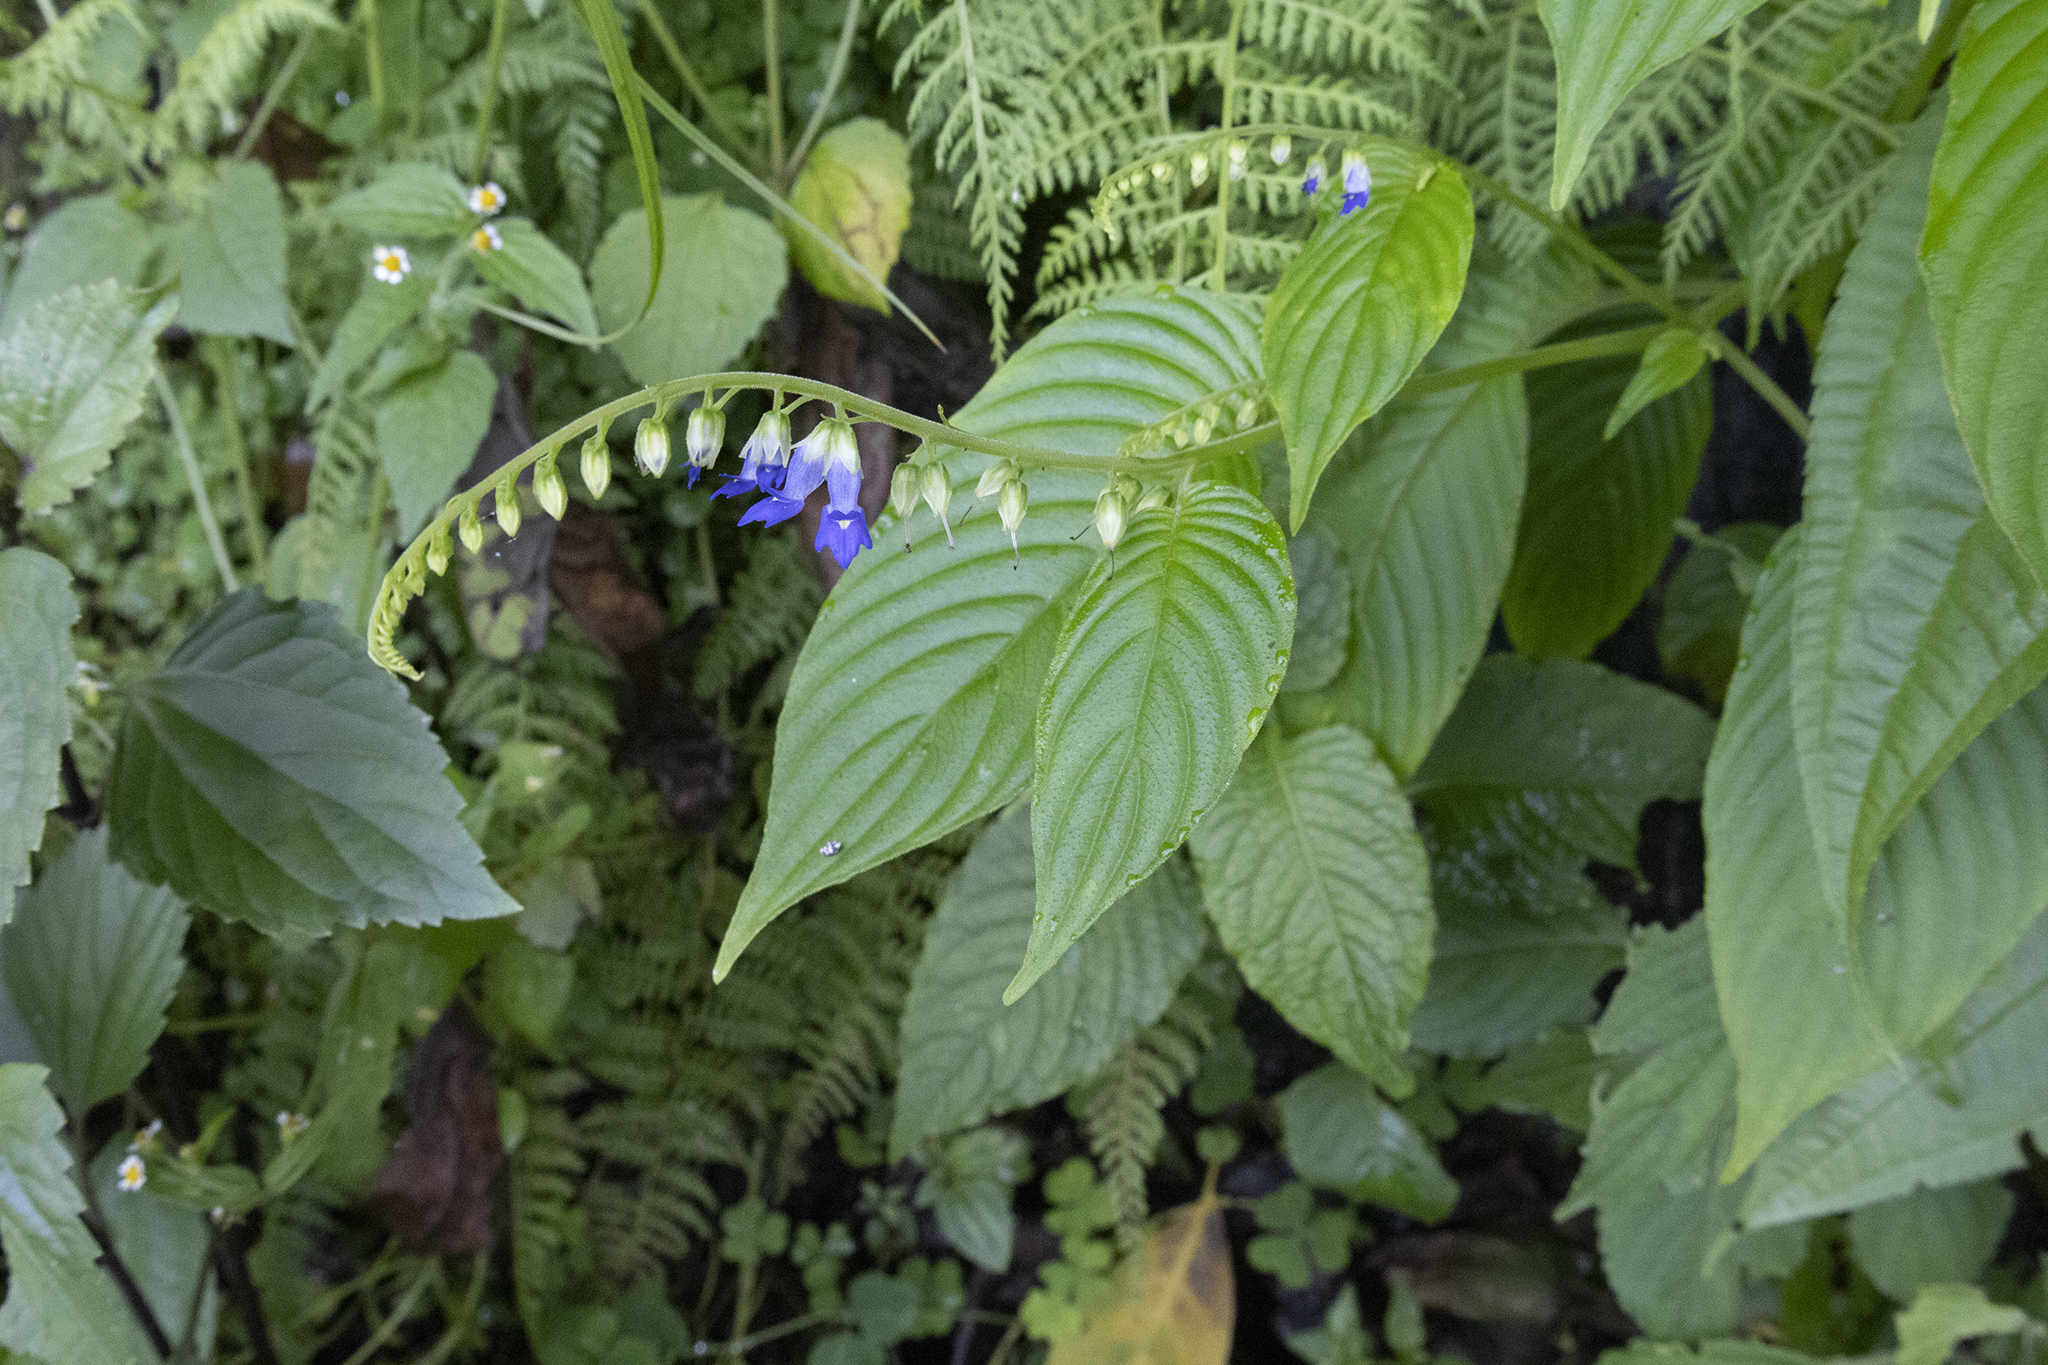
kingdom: Plantae
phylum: Tracheophyta
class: Magnoliopsida
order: Lamiales
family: Gesneriaceae
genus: Rhynchoglossum
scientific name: Rhynchoglossum obliquum
